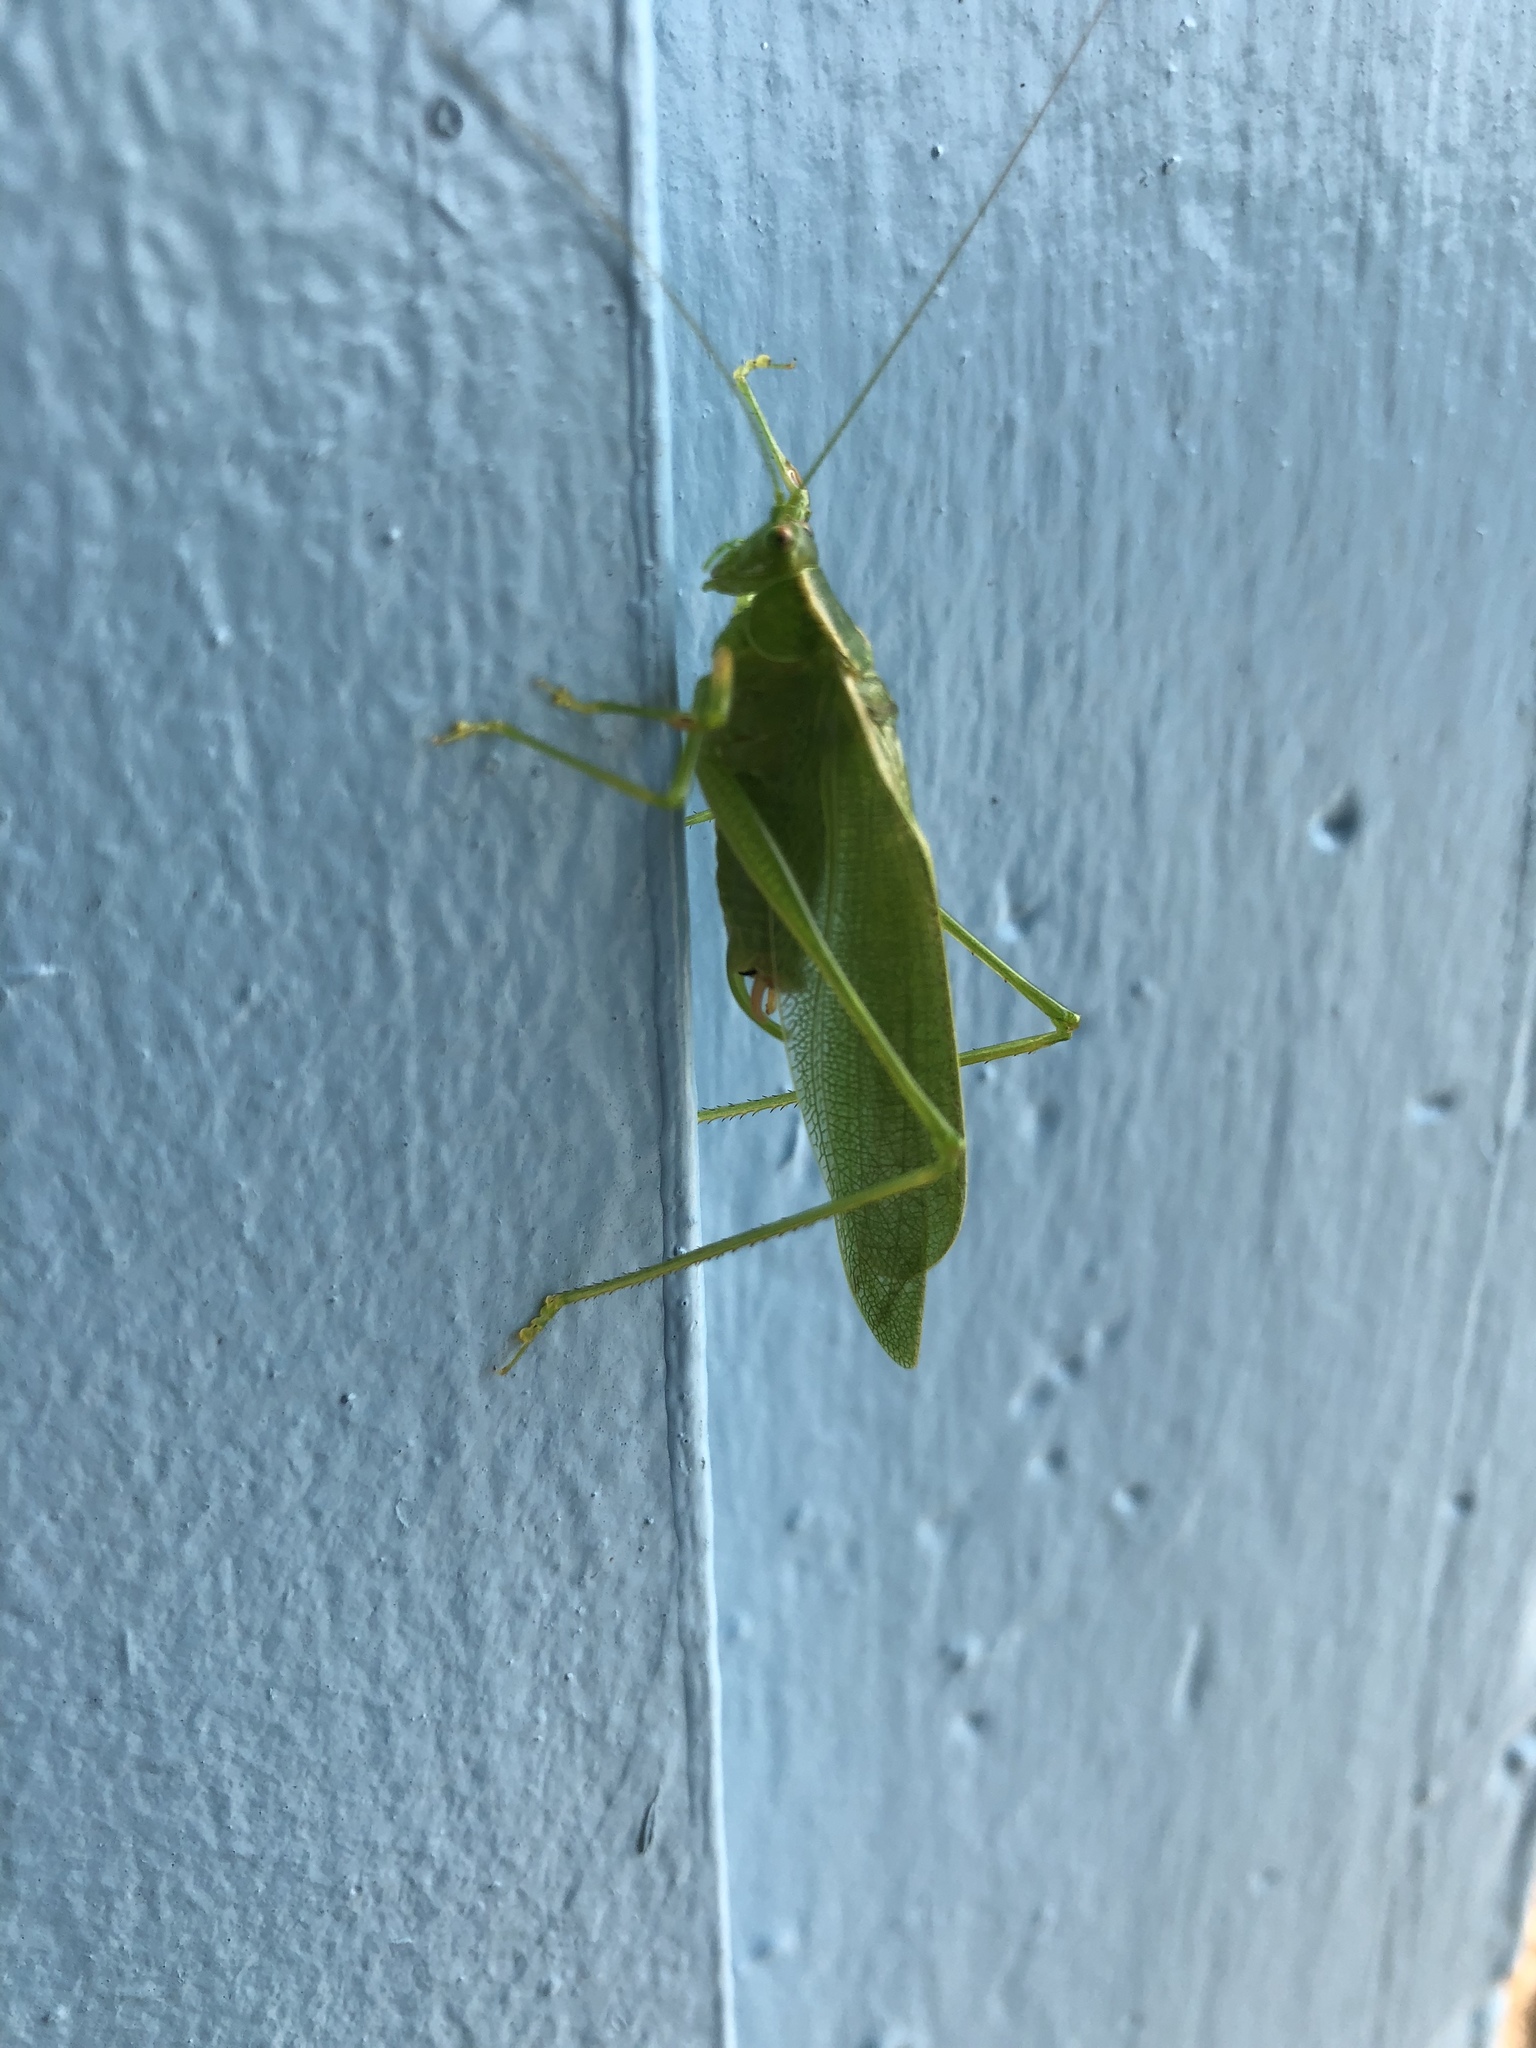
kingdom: Animalia
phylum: Arthropoda
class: Insecta
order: Orthoptera
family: Tettigoniidae
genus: Scudderia
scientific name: Scudderia septentrionalis
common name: Northern bush-katydid
